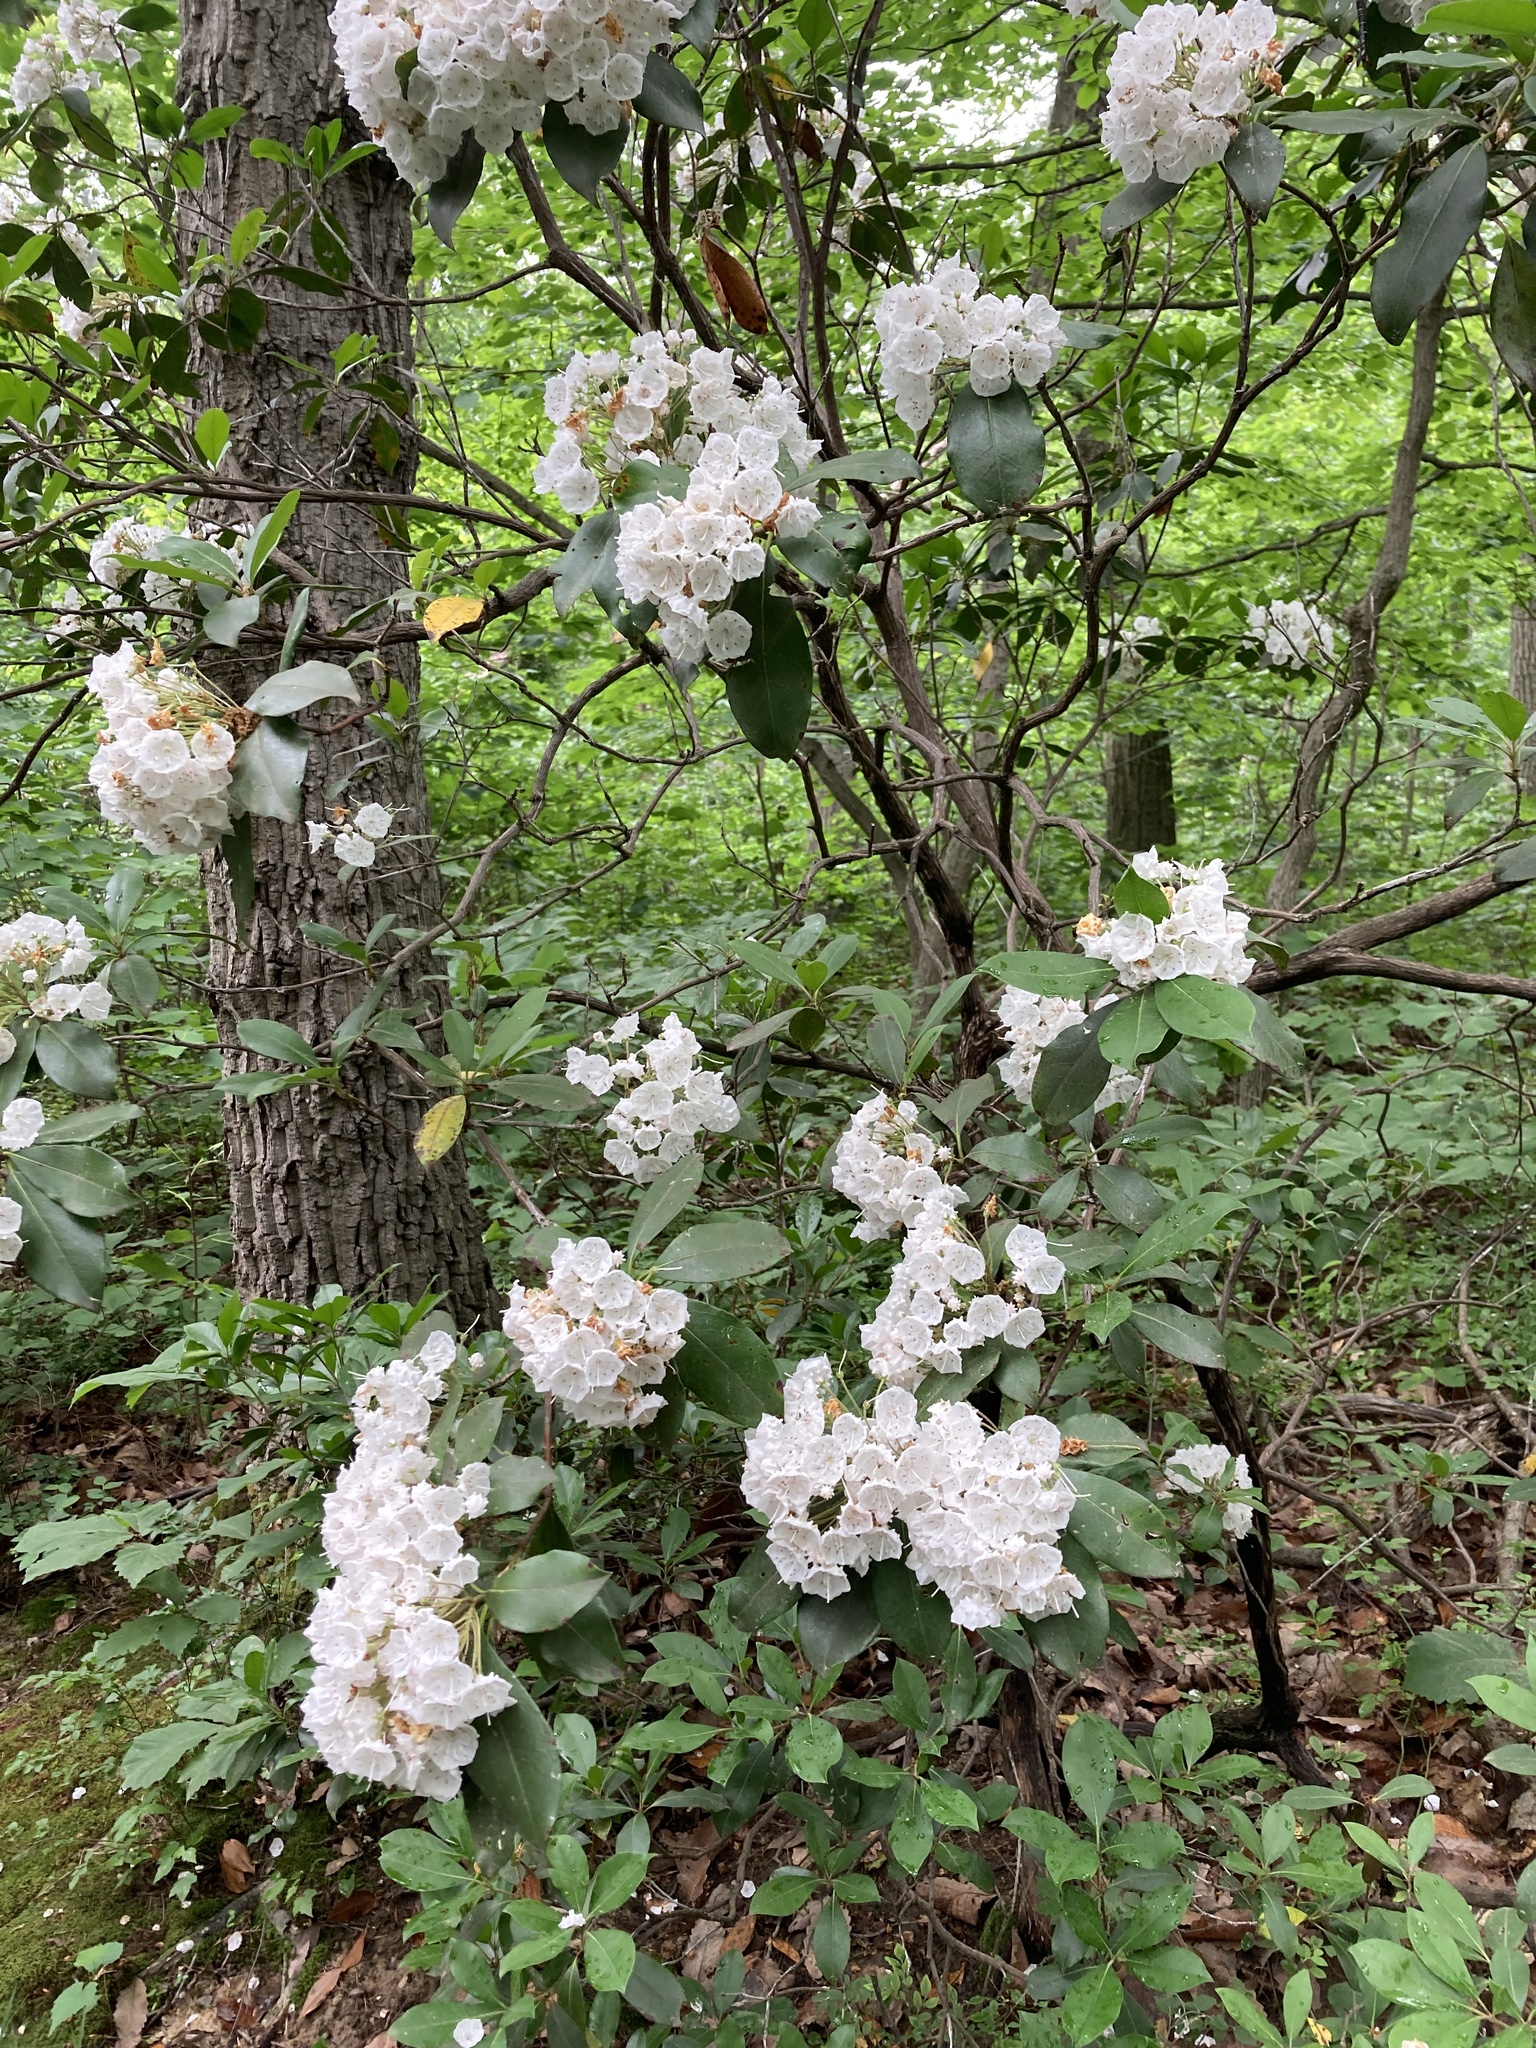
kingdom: Plantae
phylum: Tracheophyta
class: Magnoliopsida
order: Ericales
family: Ericaceae
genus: Kalmia
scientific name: Kalmia latifolia
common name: Mountain-laurel
